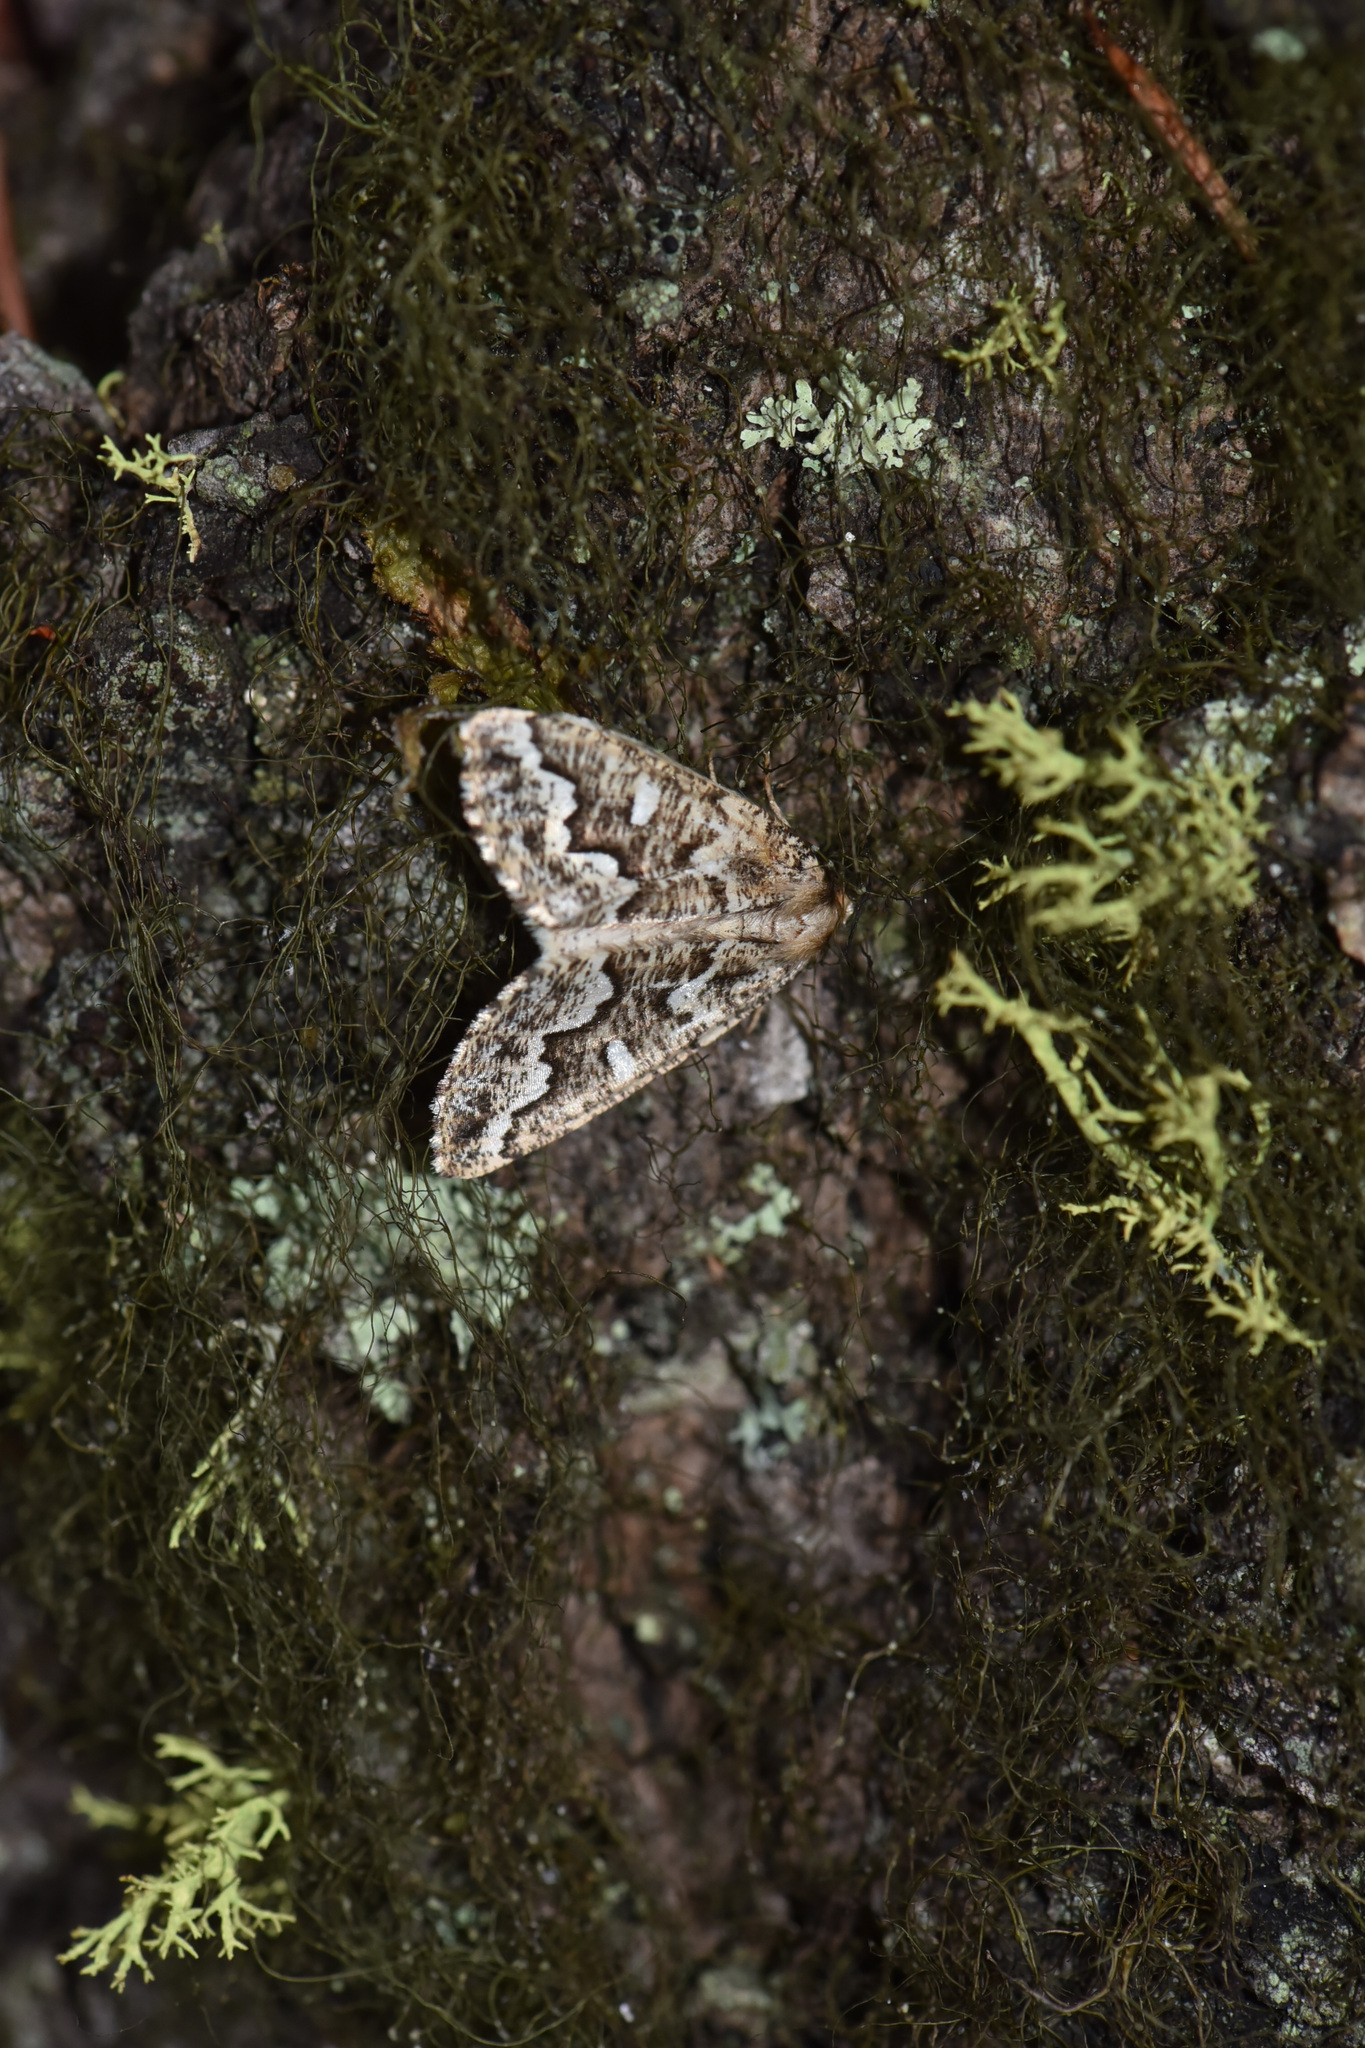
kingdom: Animalia
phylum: Arthropoda
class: Insecta
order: Lepidoptera
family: Geometridae
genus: Caripeta
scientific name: Caripeta divisata
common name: Gray spruce looper
